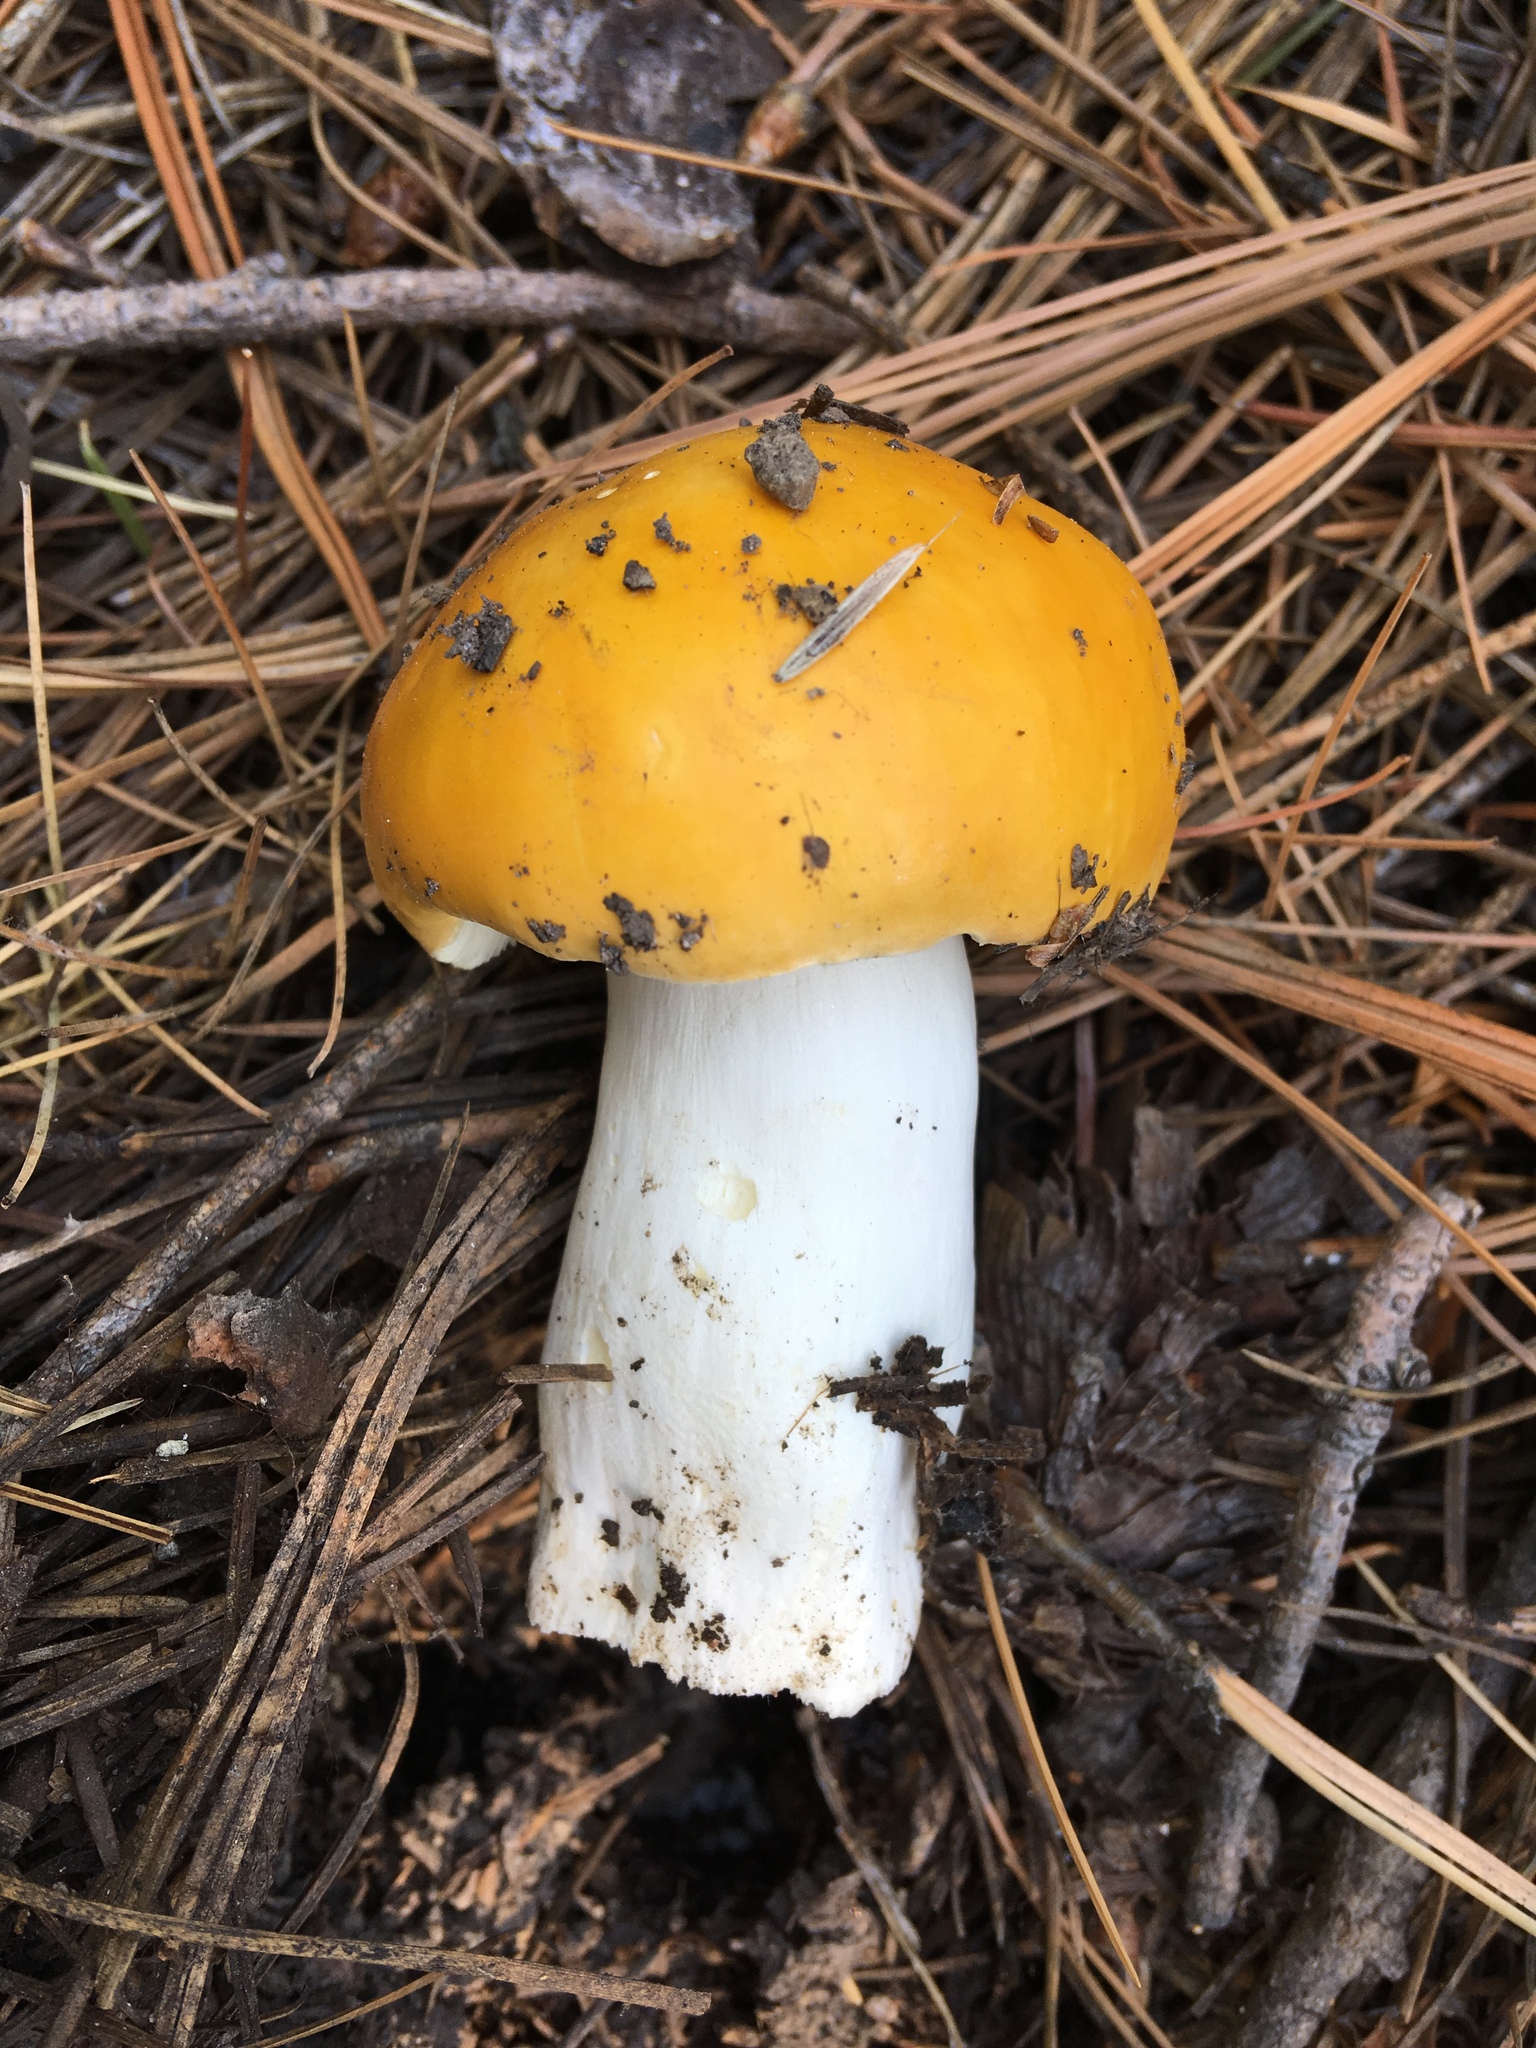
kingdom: Fungi
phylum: Basidiomycota
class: Agaricomycetes
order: Russulales
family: Russulaceae
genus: Russula
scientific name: Russula risigallina
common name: Golden brittlegill
